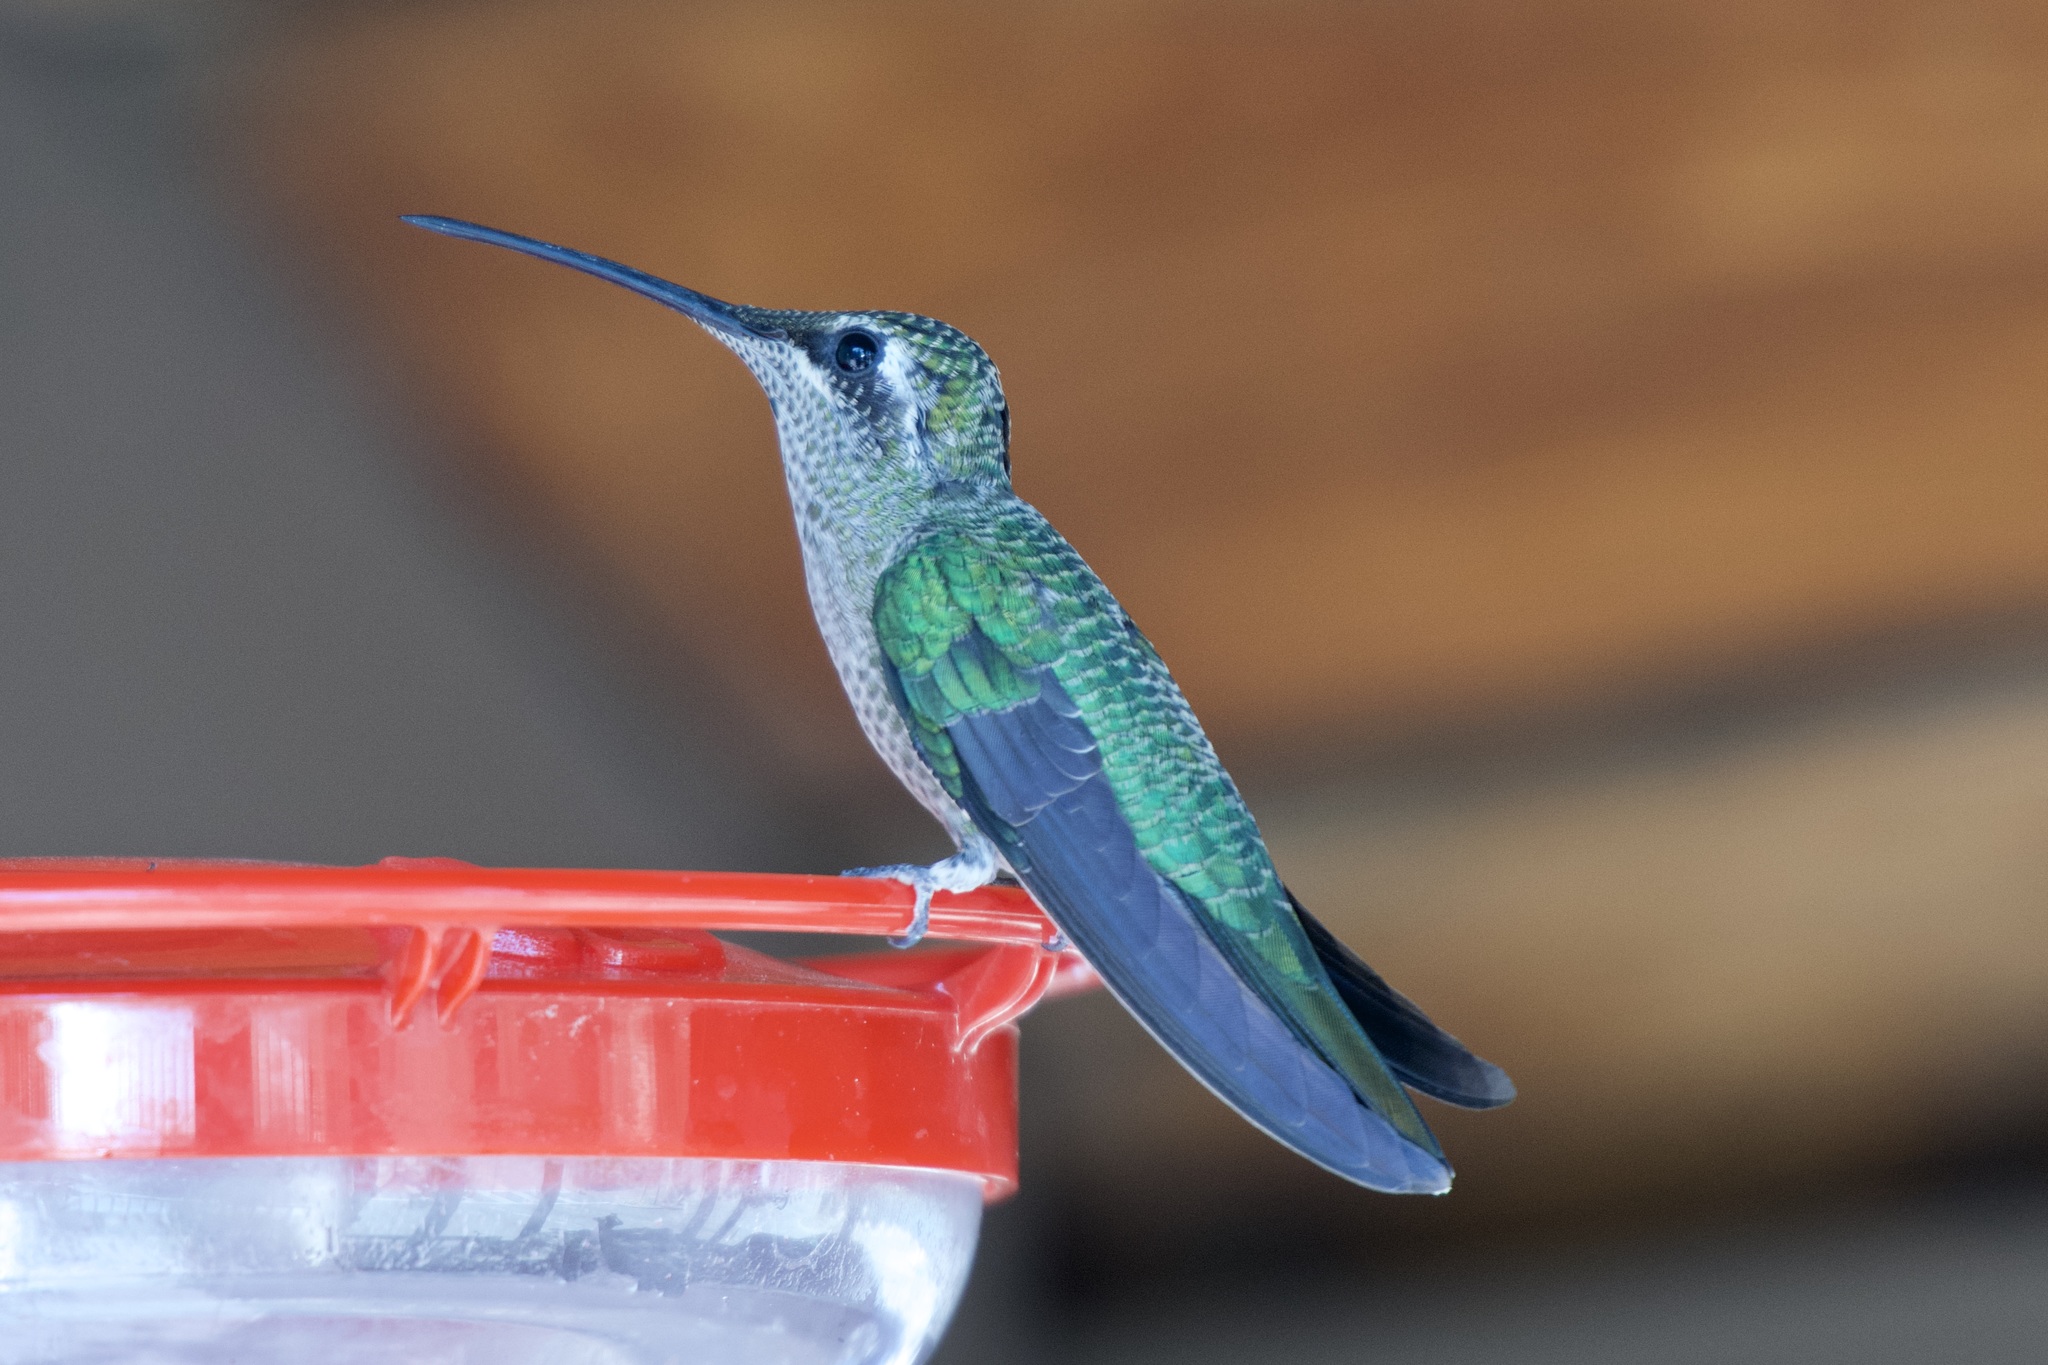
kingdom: Animalia
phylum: Chordata
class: Aves
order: Apodiformes
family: Trochilidae
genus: Eugenes
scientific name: Eugenes fulgens
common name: Magnificent hummingbird
